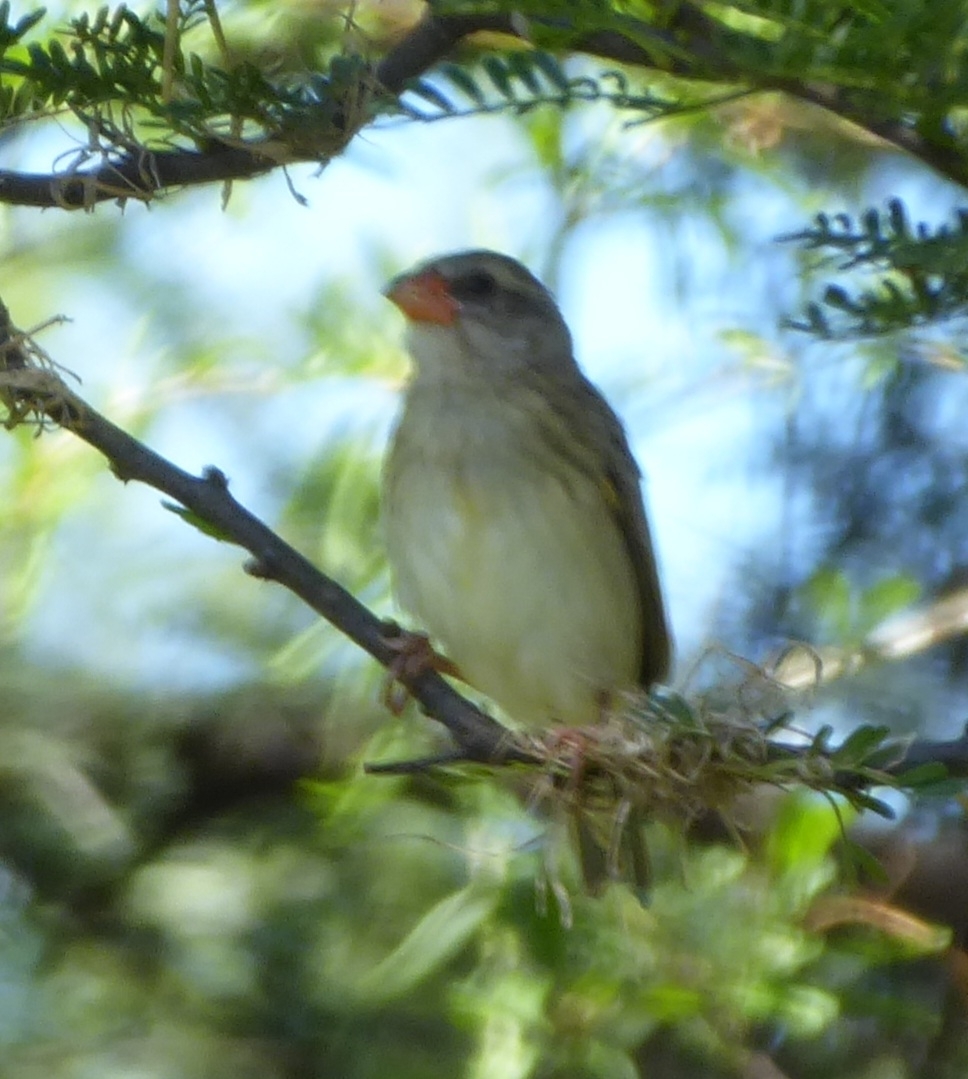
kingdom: Animalia
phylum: Chordata
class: Aves
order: Passeriformes
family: Ploceidae
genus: Quelea
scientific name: Quelea quelea
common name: Red-billed quelea
